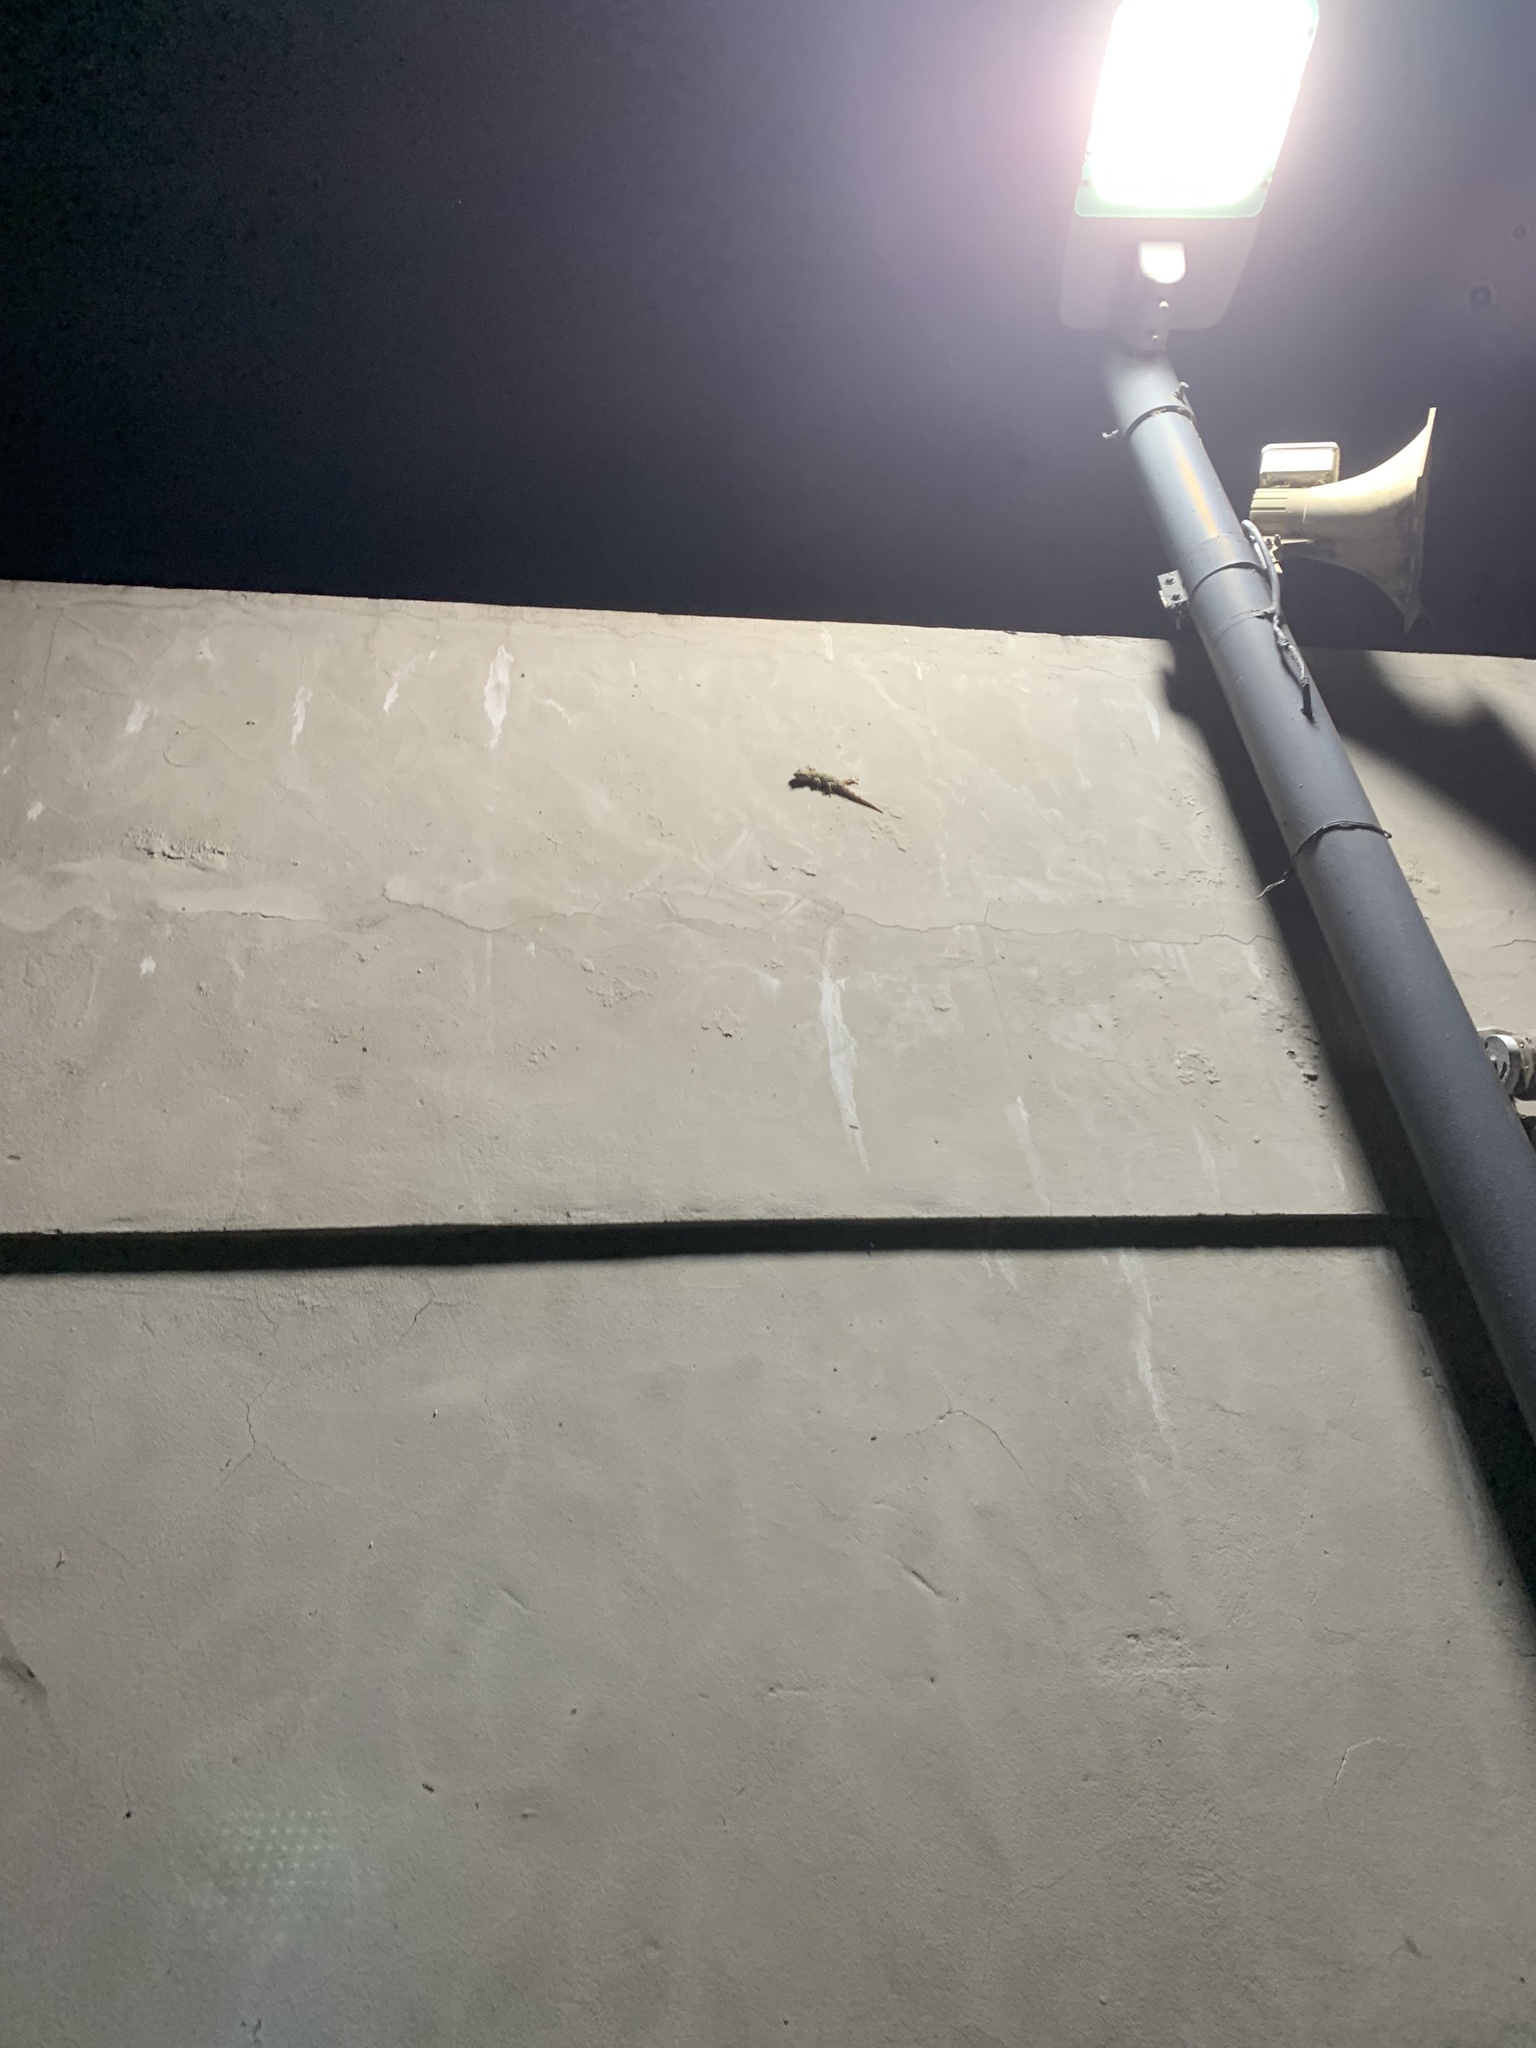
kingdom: Animalia
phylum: Chordata
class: Squamata
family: Phyllodactylidae
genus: Tarentola
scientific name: Tarentola mauritanica
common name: Moorish gecko
